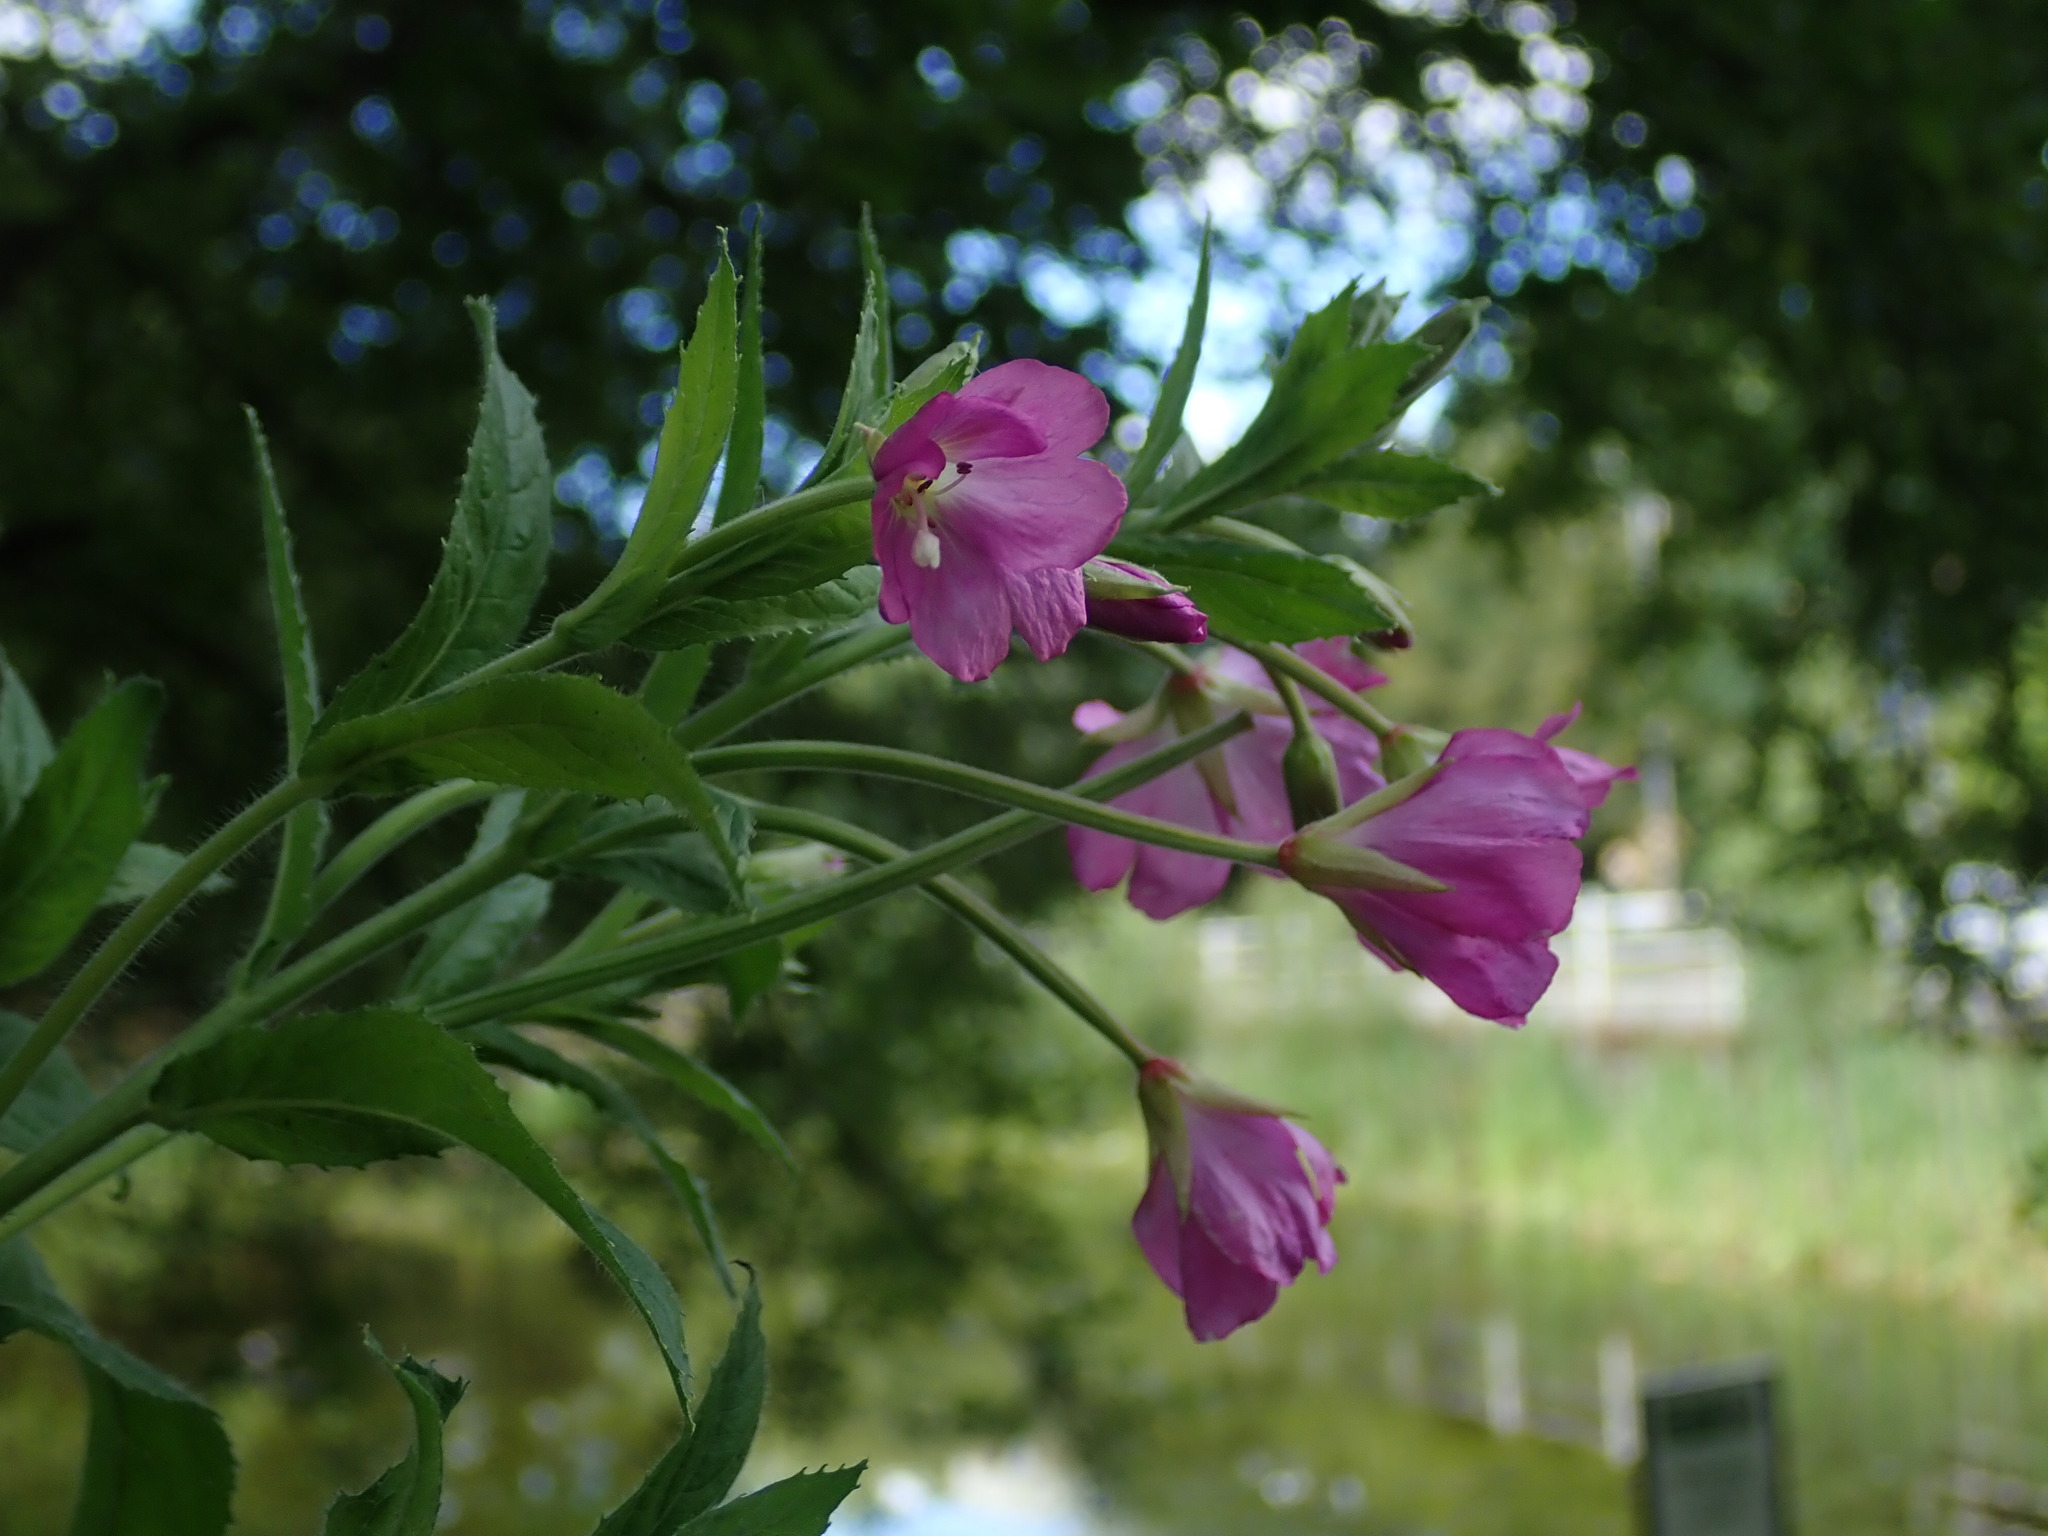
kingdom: Plantae
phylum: Tracheophyta
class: Magnoliopsida
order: Myrtales
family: Onagraceae
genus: Epilobium
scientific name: Epilobium hirsutum
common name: Great willowherb
